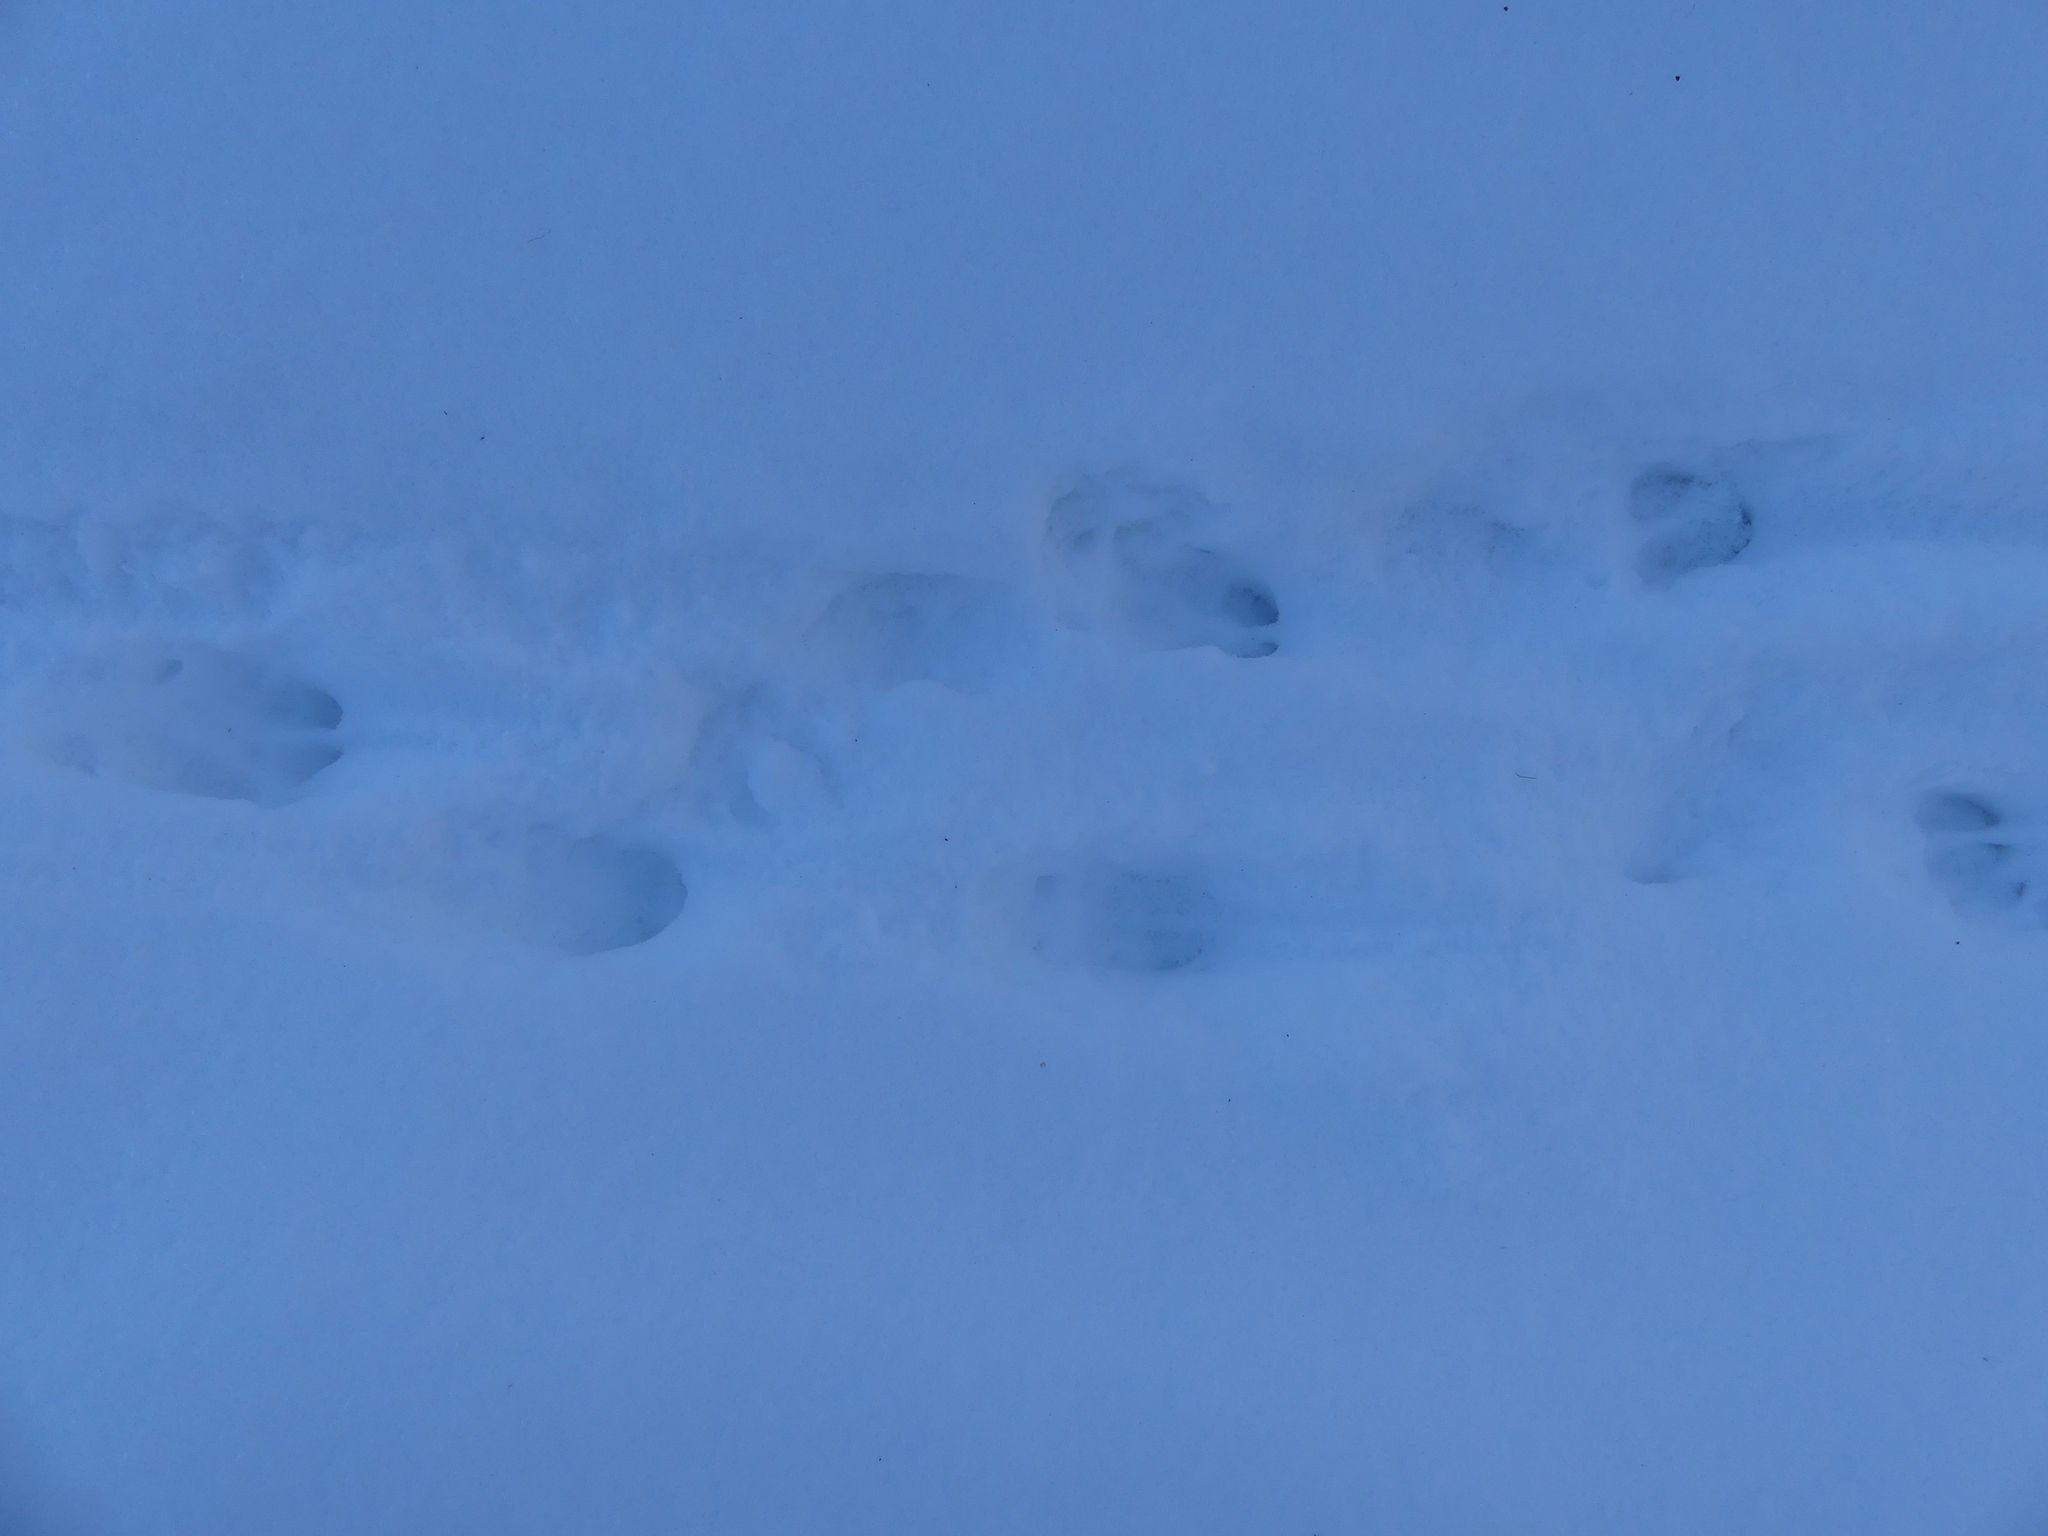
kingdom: Animalia
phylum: Chordata
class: Mammalia
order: Artiodactyla
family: Cervidae
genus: Odocoileus
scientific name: Odocoileus virginianus
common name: White-tailed deer
